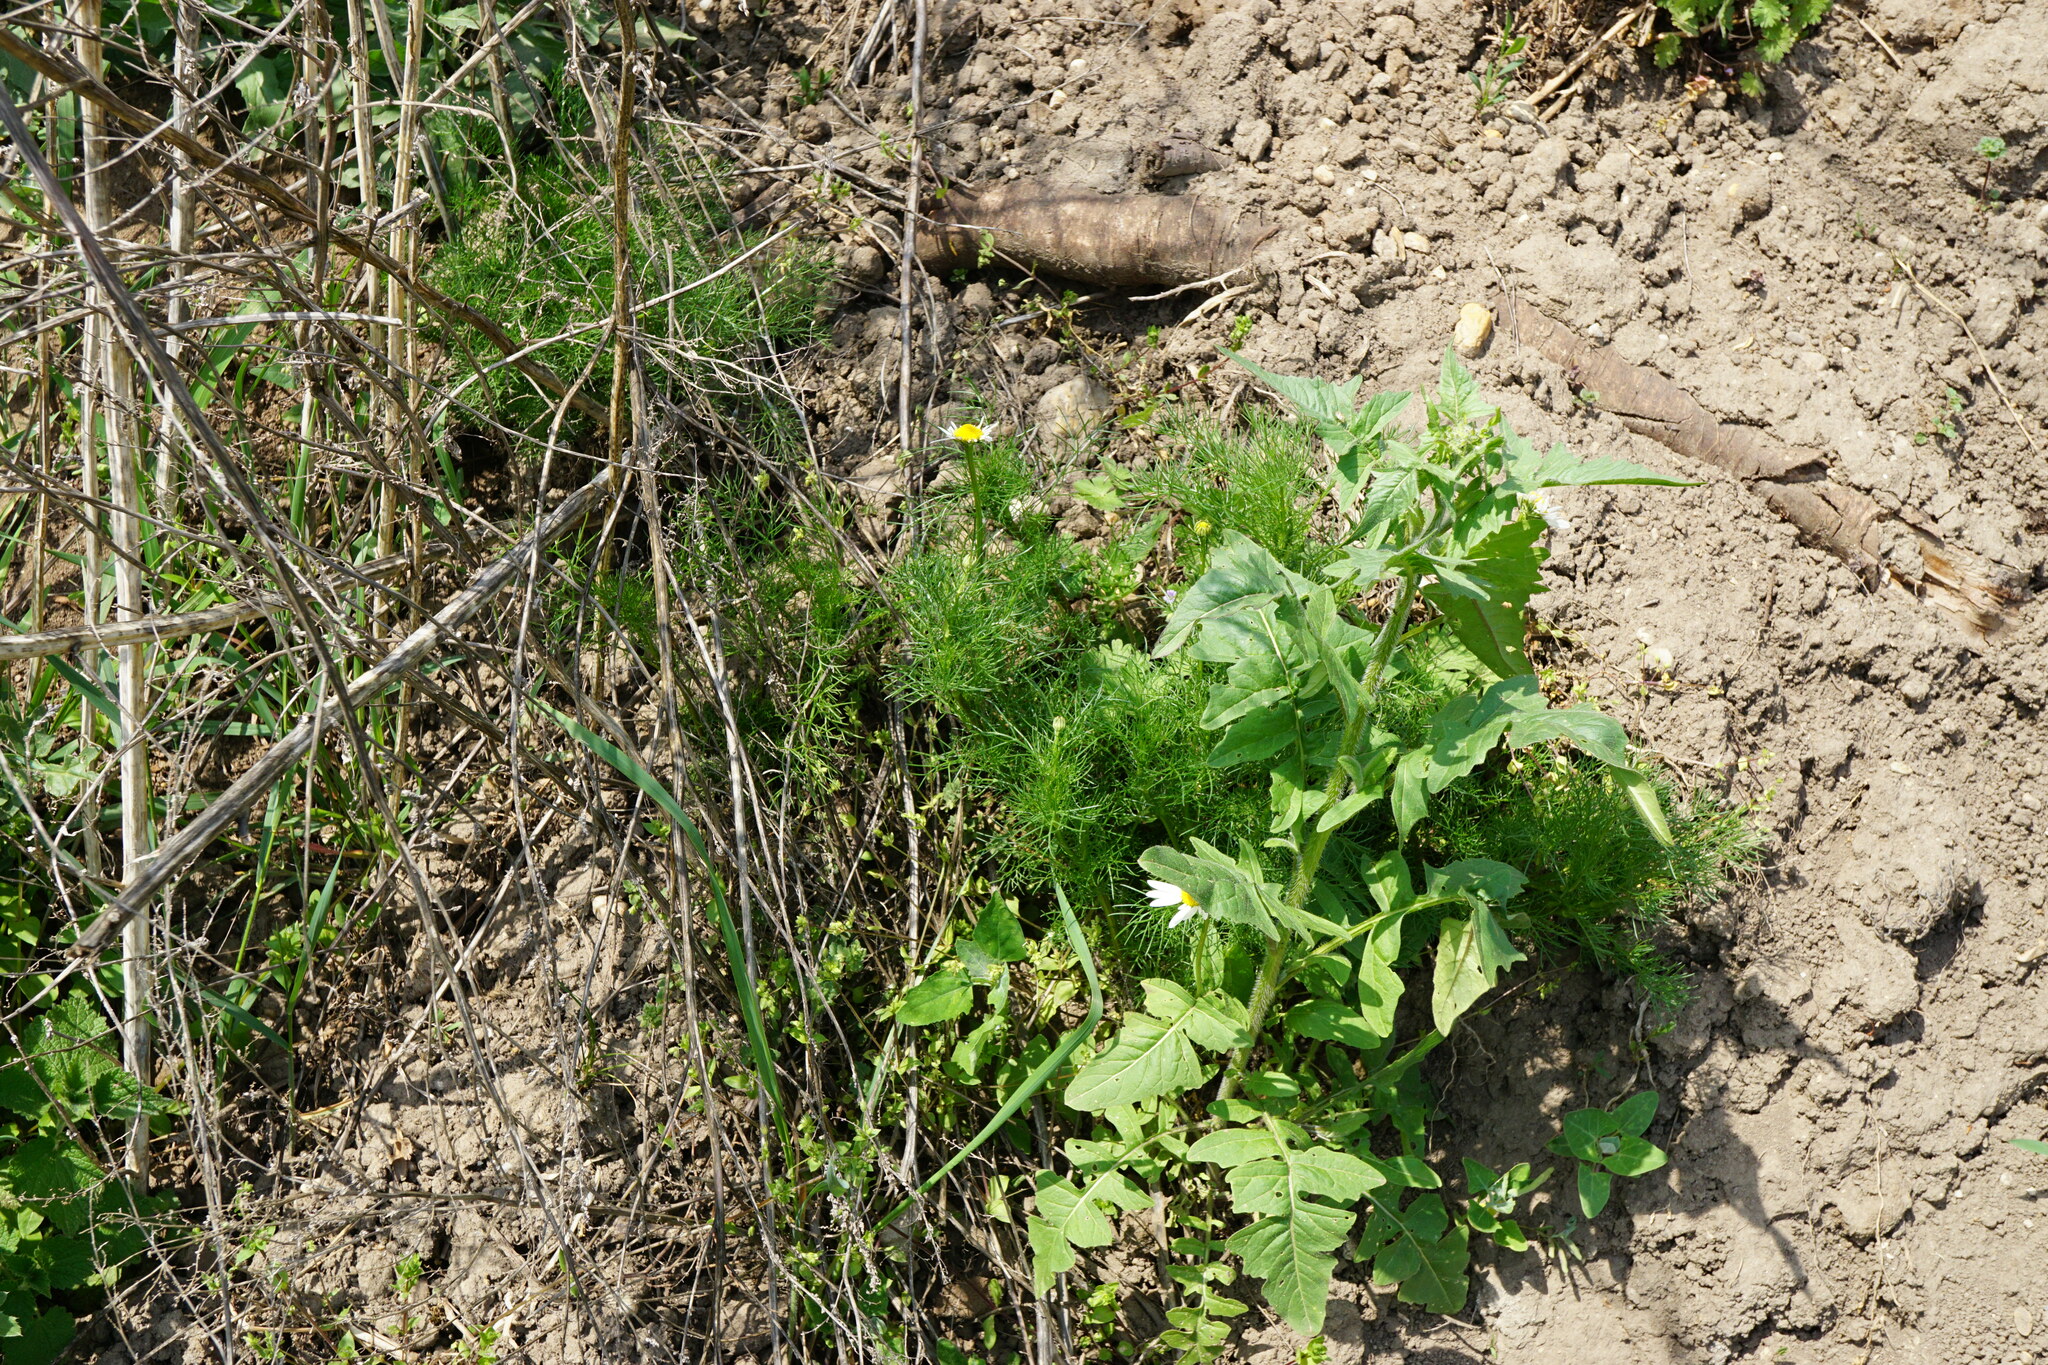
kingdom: Plantae
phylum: Tracheophyta
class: Magnoliopsida
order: Asterales
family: Asteraceae
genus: Matricaria
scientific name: Matricaria chamomilla
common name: Scented mayweed
